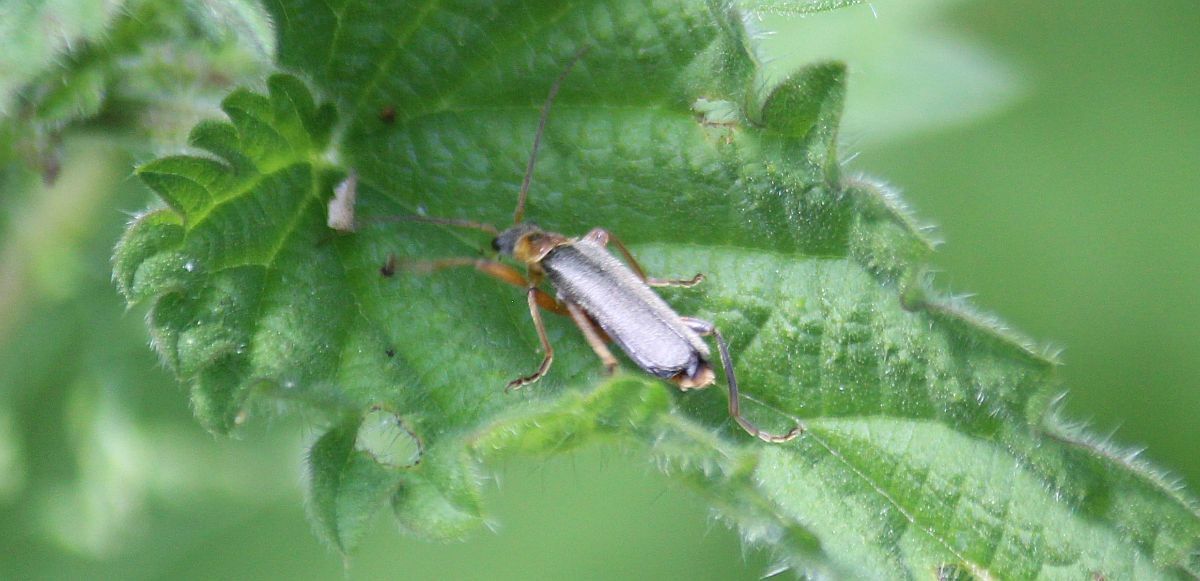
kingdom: Animalia
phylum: Arthropoda
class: Insecta
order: Coleoptera
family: Cantharidae
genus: Cantharis
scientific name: Cantharis nigricans
